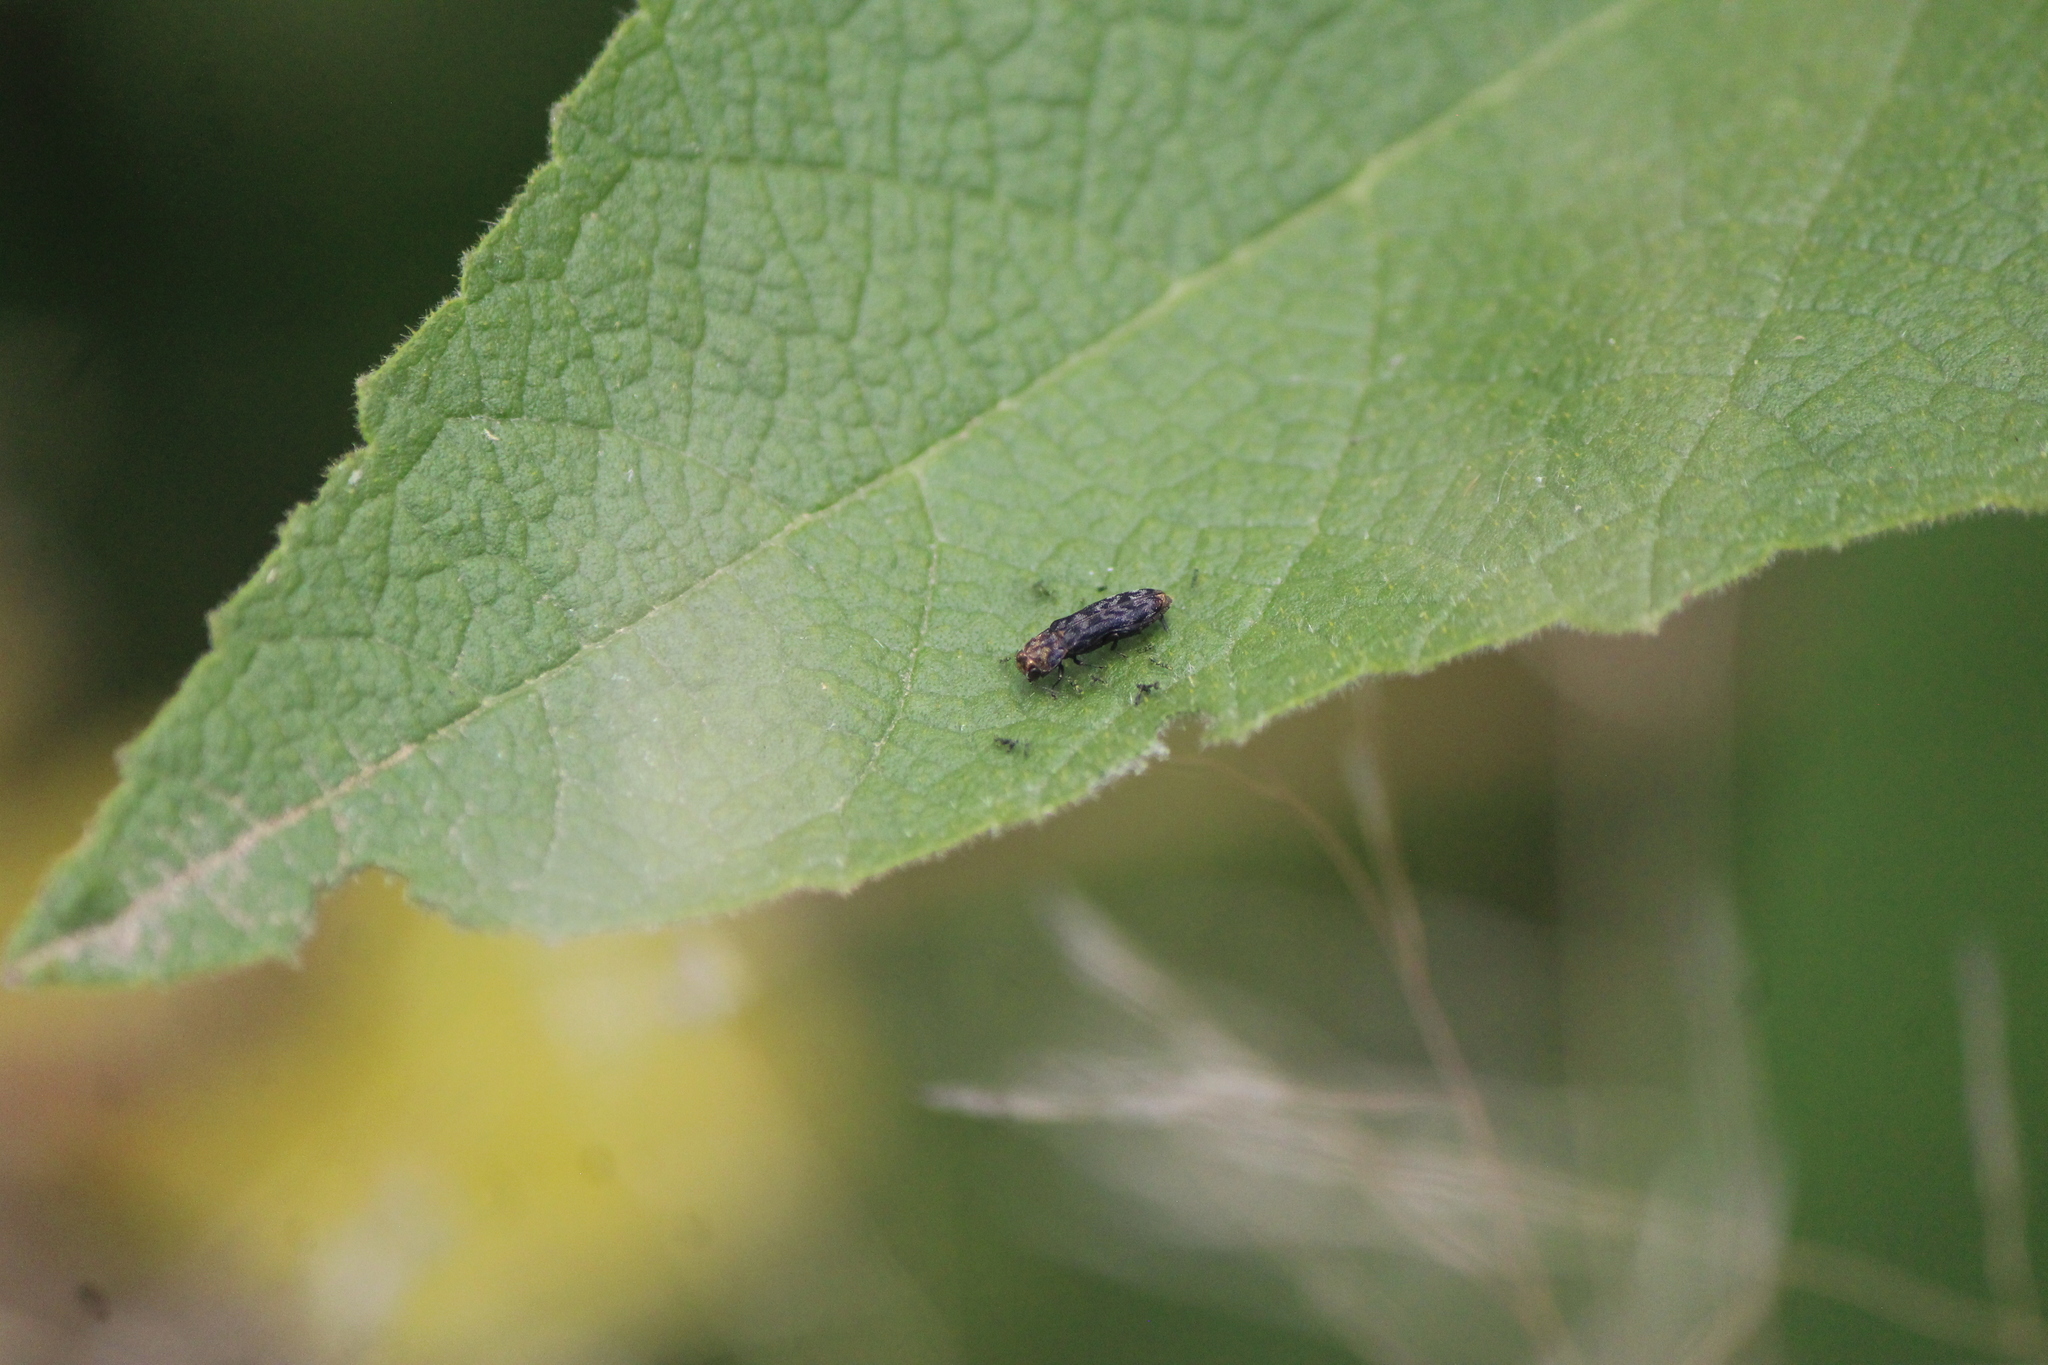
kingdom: Animalia
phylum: Arthropoda
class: Insecta
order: Coleoptera
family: Buprestidae
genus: Agrilus
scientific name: Agrilus sallei
